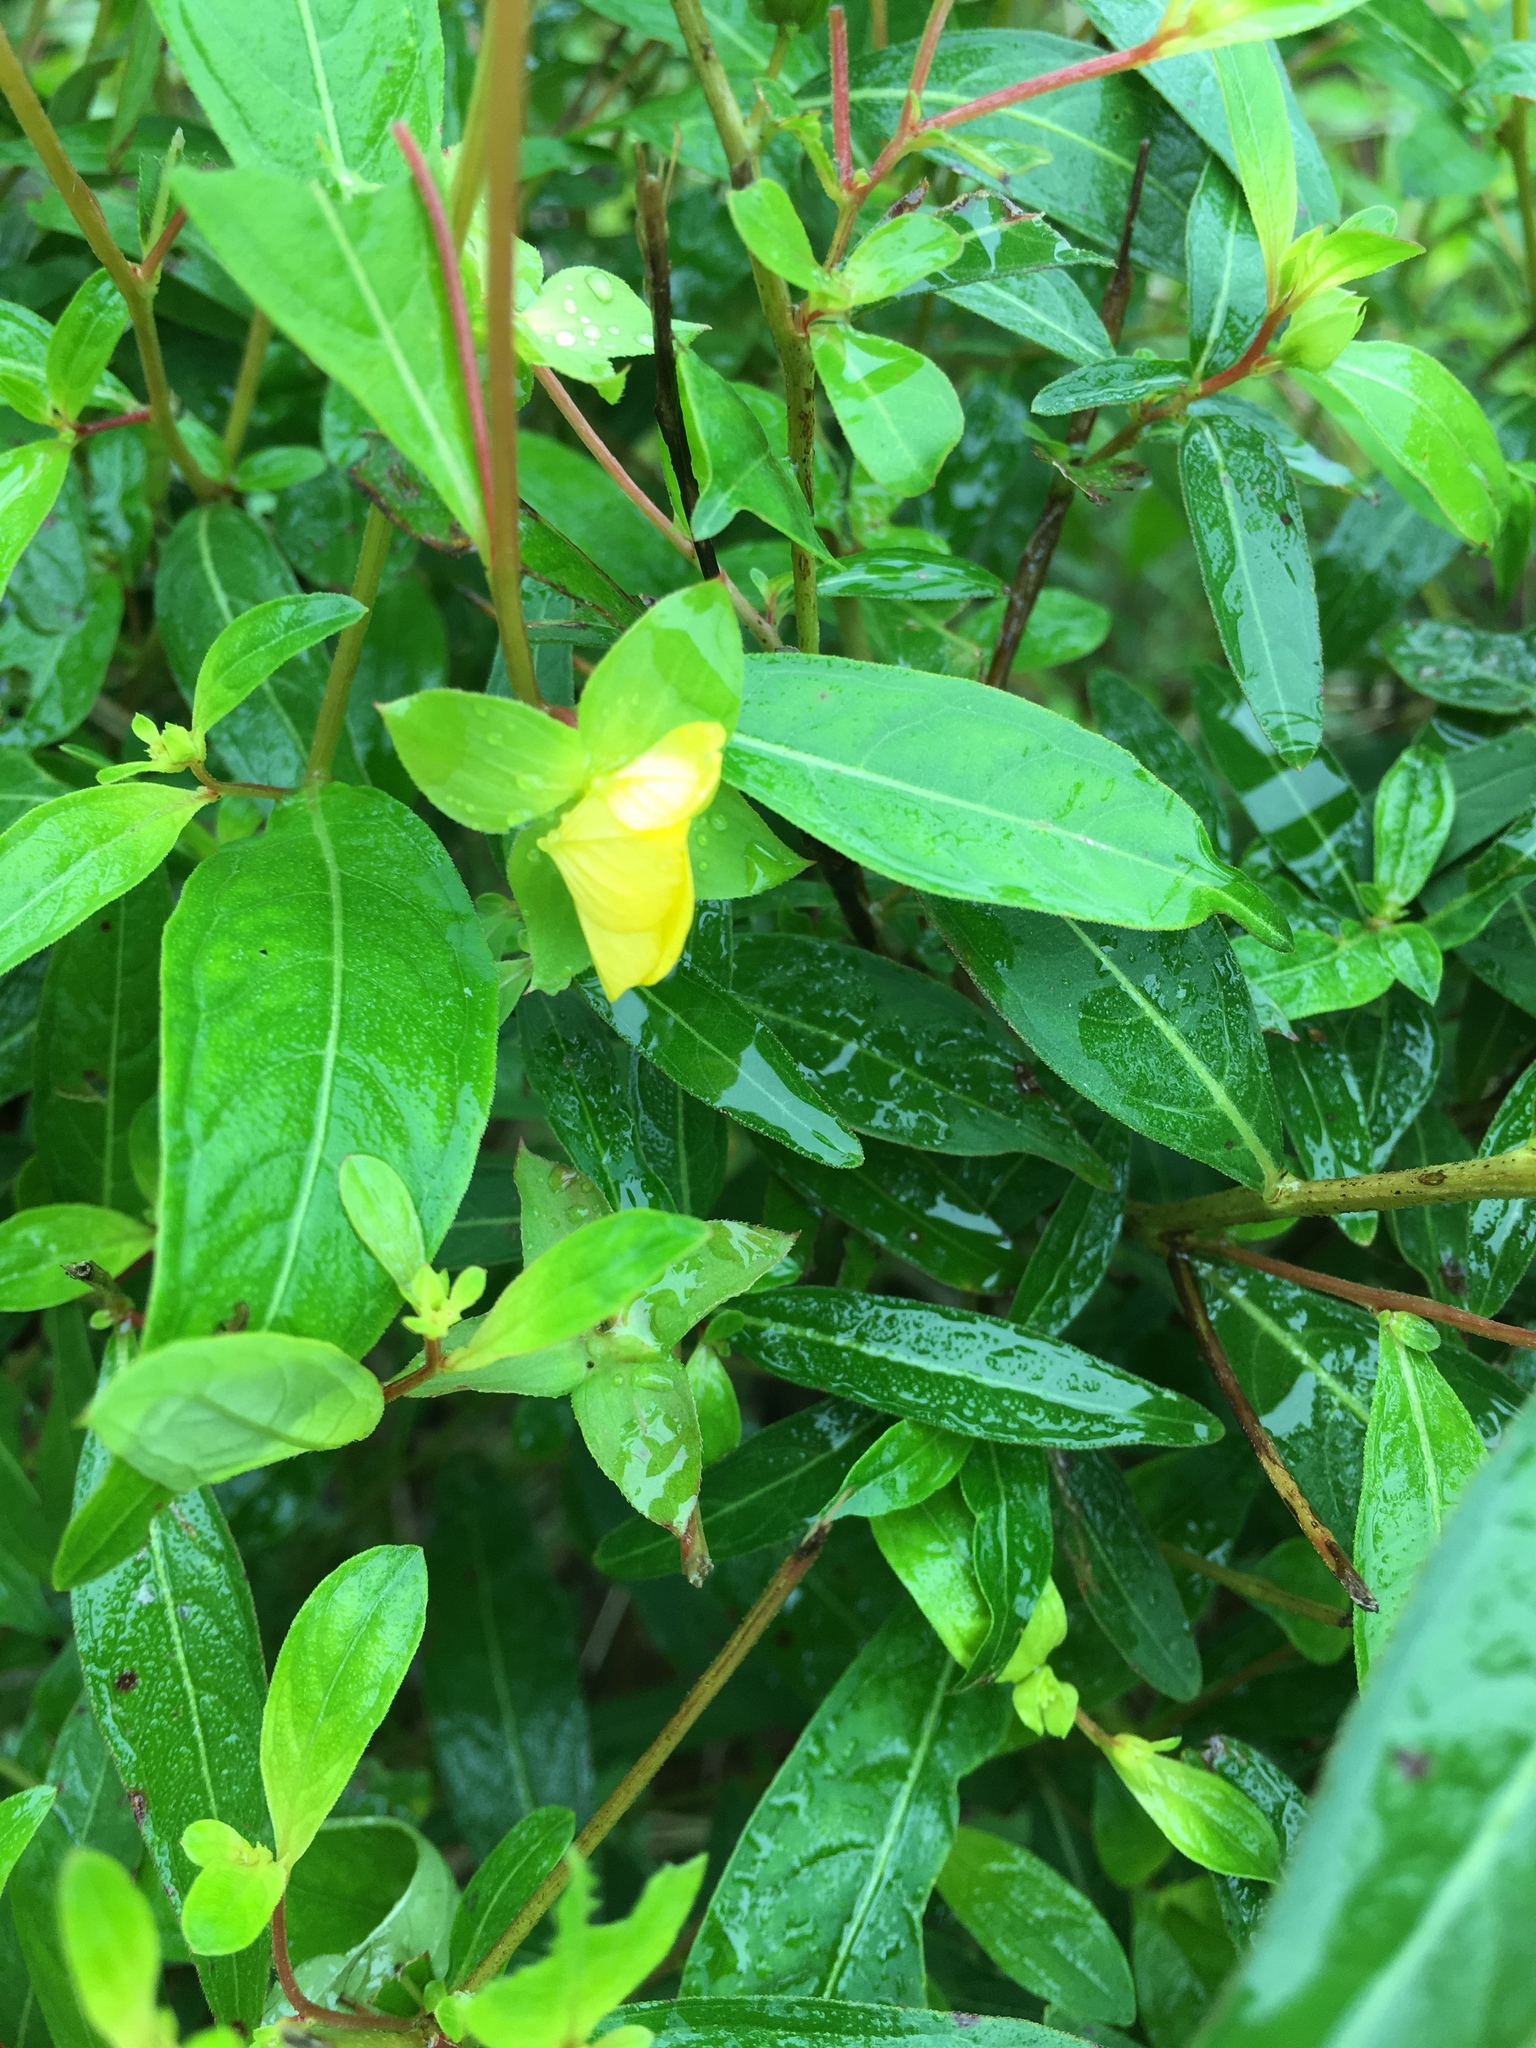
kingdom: Plantae
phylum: Tracheophyta
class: Magnoliopsida
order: Myrtales
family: Onagraceae
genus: Ludwigia
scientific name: Ludwigia alternifolia
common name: Rattlebox
